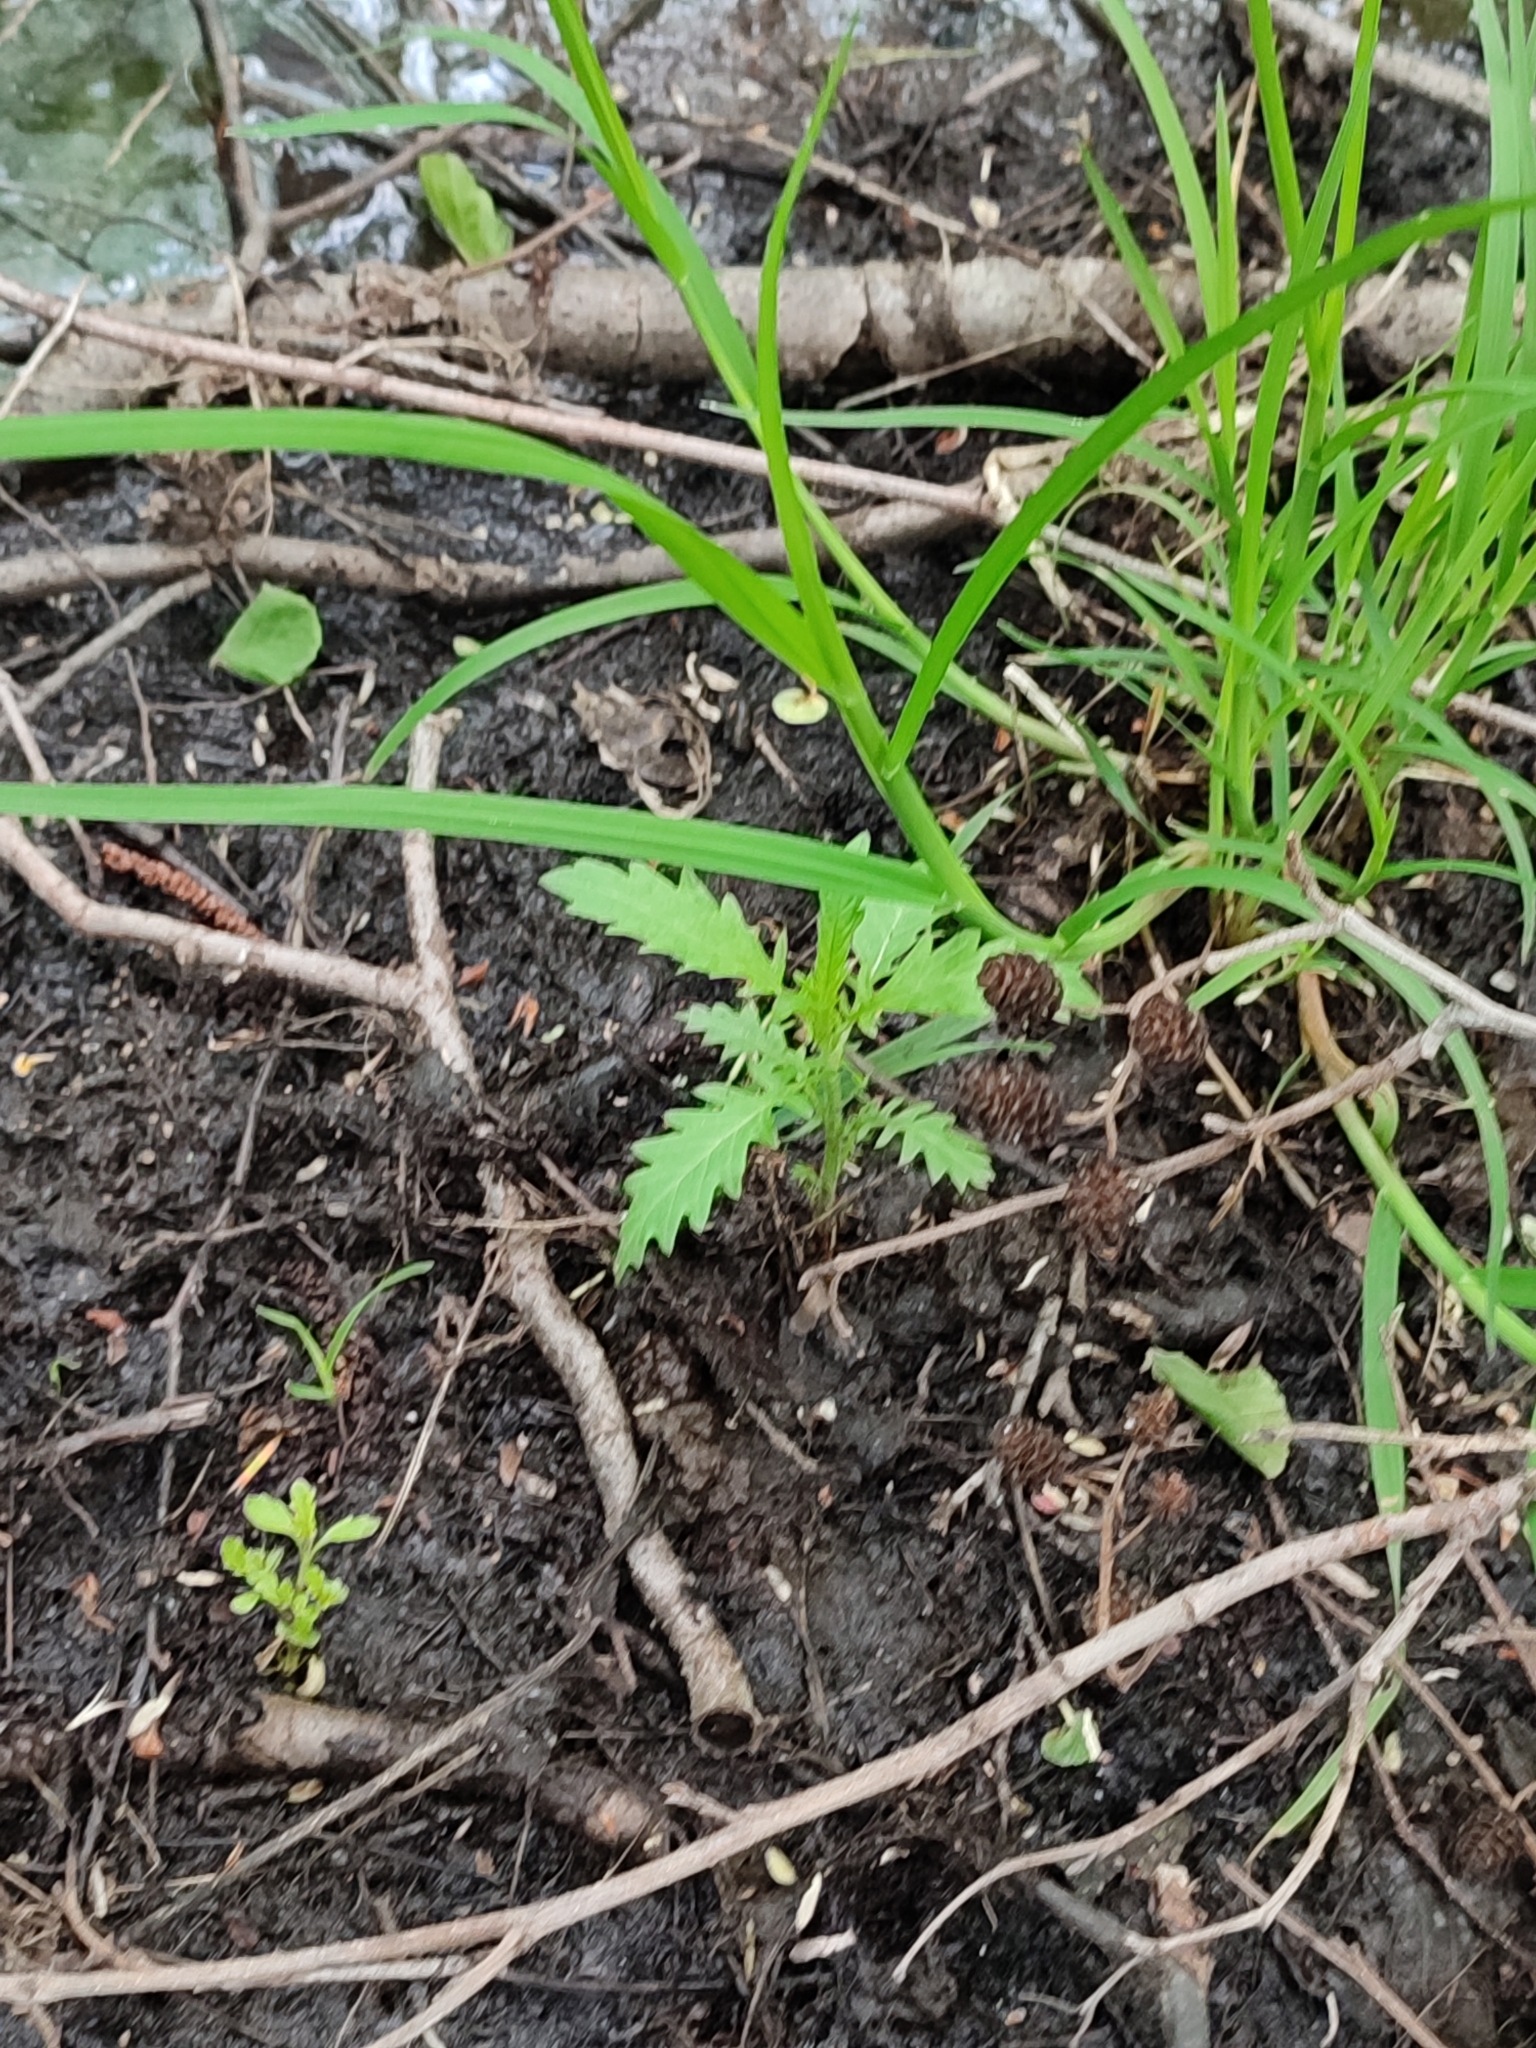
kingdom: Plantae
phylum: Tracheophyta
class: Magnoliopsida
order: Lamiales
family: Lamiaceae
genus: Lycopus
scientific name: Lycopus europaeus
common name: European bugleweed
